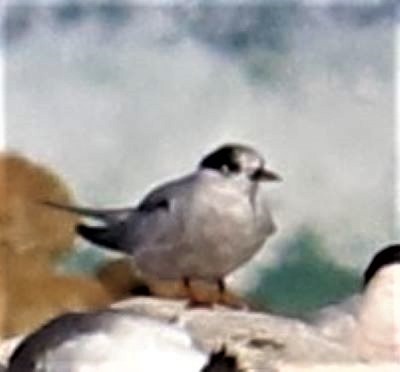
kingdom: Animalia
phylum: Chordata
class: Aves
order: Charadriiformes
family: Laridae
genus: Sterna
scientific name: Sterna vittata
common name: Antarctic tern
